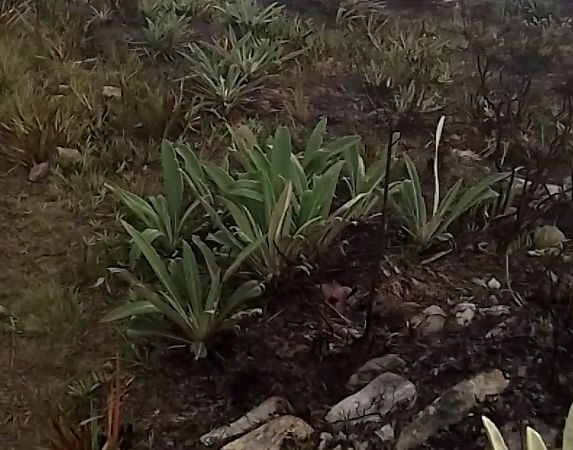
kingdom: Plantae
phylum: Tracheophyta
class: Magnoliopsida
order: Asterales
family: Asteraceae
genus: Espeletia
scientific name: Espeletia bracteosa
